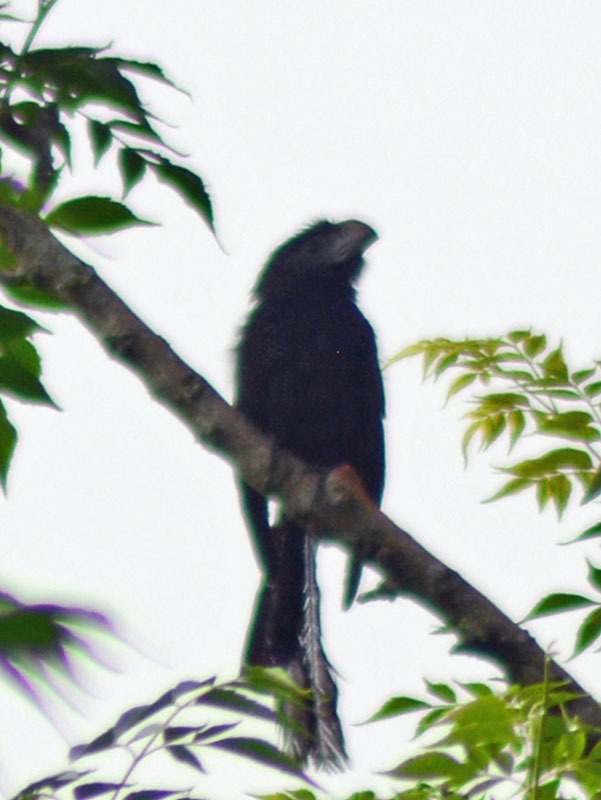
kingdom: Animalia
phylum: Chordata
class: Aves
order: Cuculiformes
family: Cuculidae
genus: Crotophaga
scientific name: Crotophaga sulcirostris
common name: Groove-billed ani
